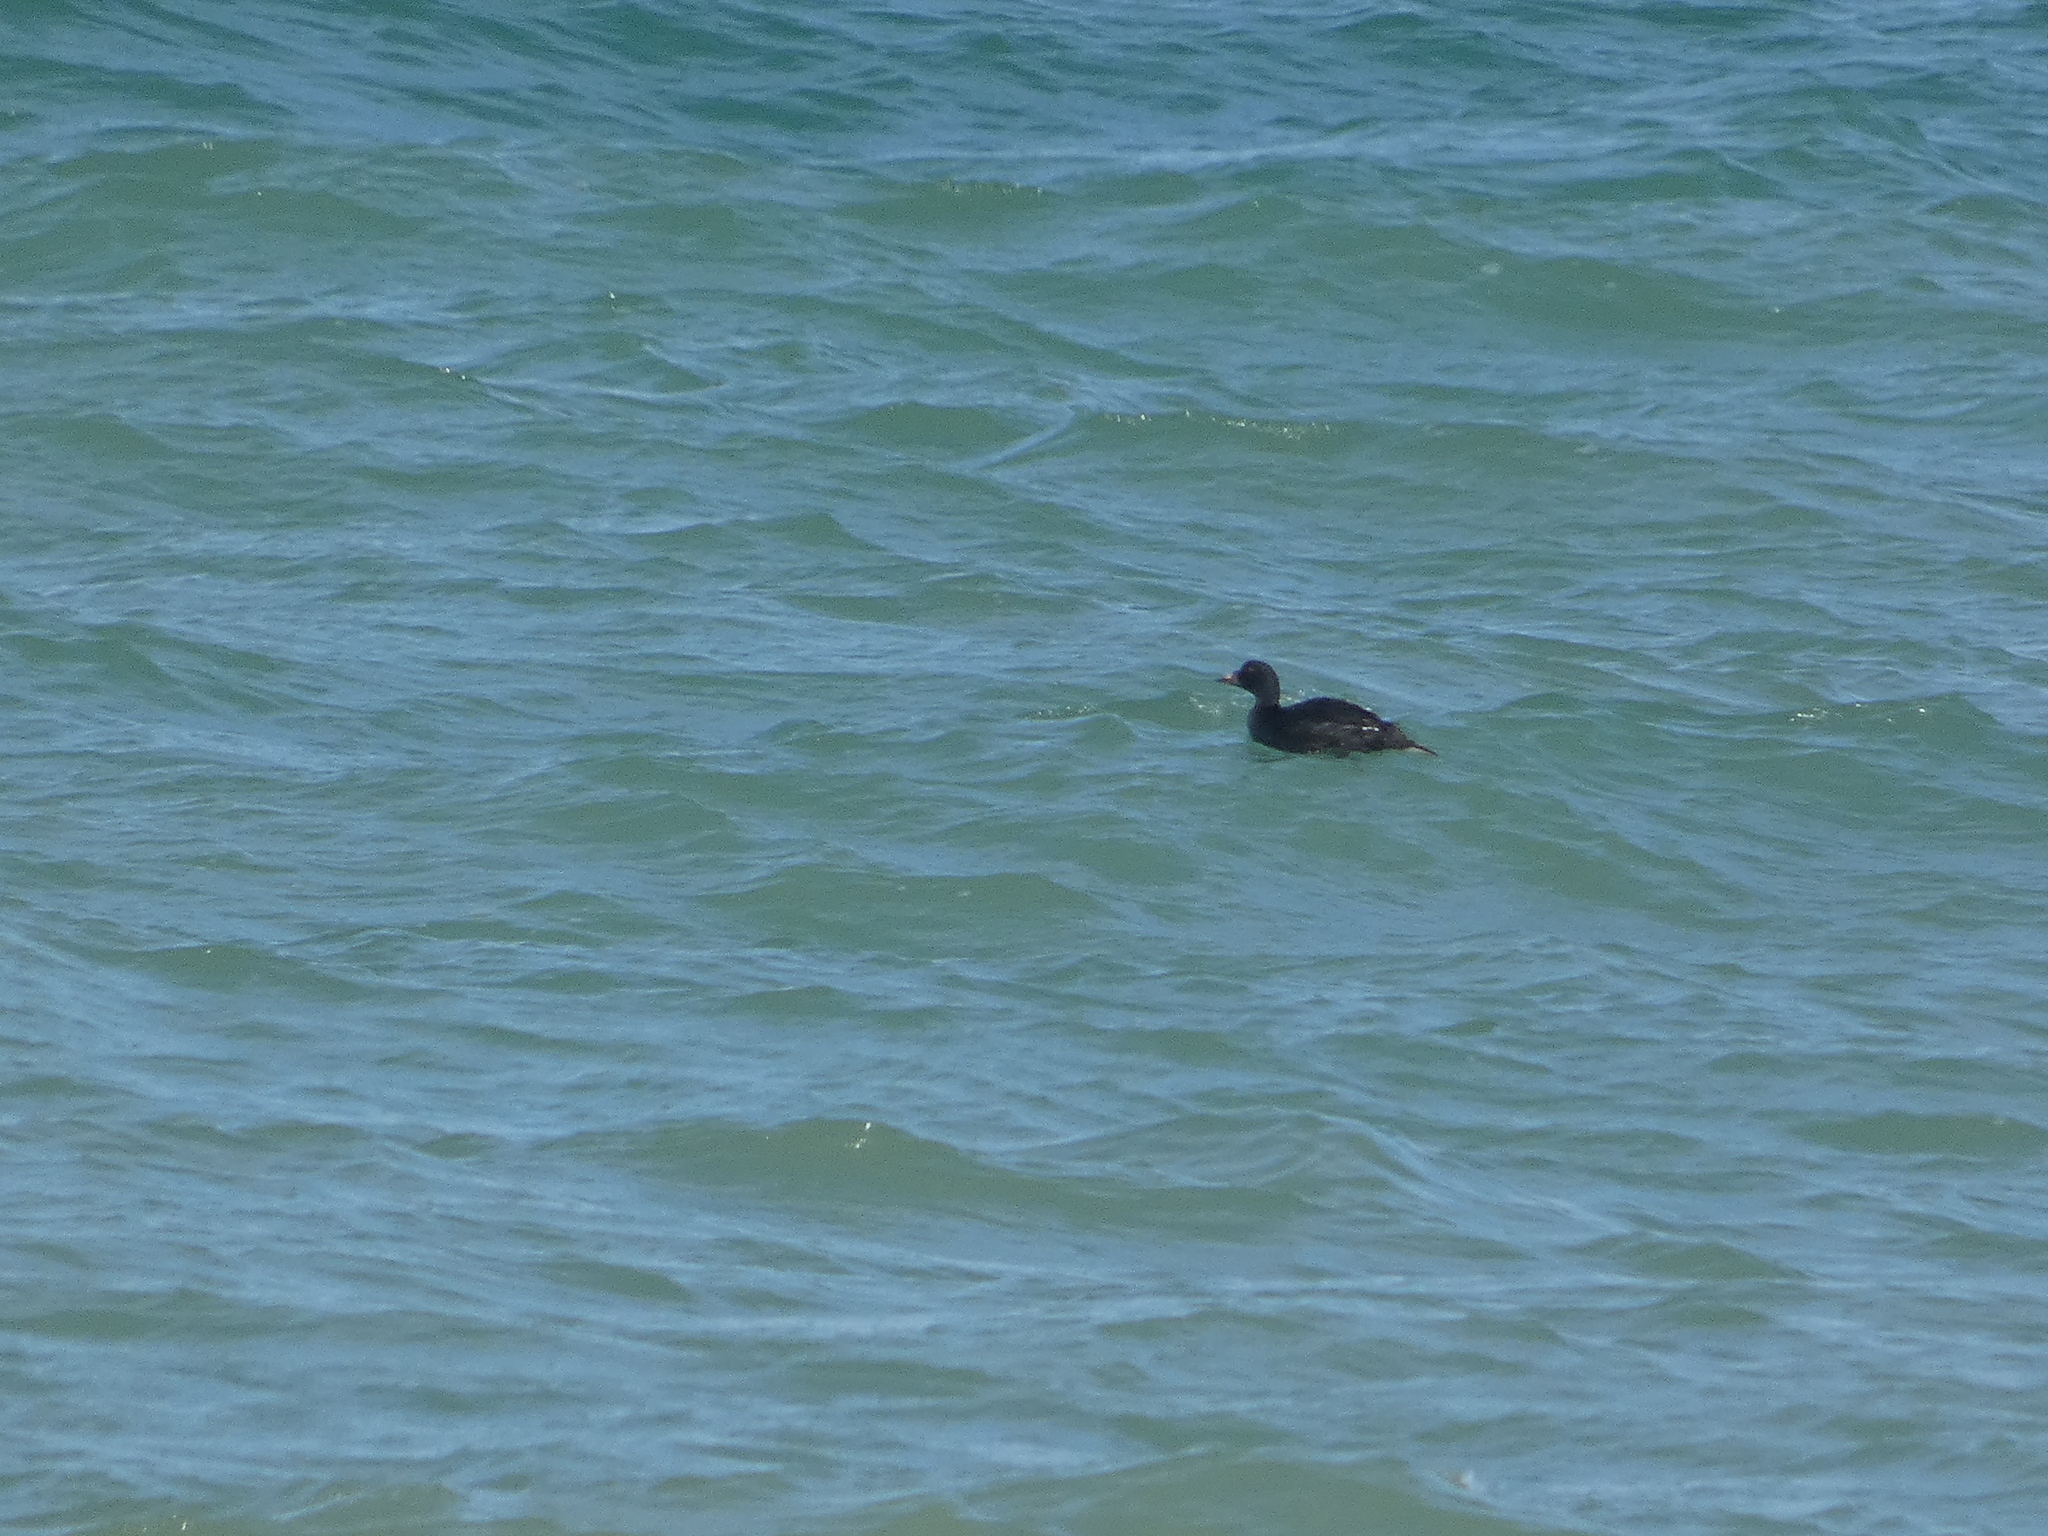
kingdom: Animalia
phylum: Chordata
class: Aves
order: Anseriformes
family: Anatidae
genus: Melanitta
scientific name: Melanitta nigra
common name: Common scoter
